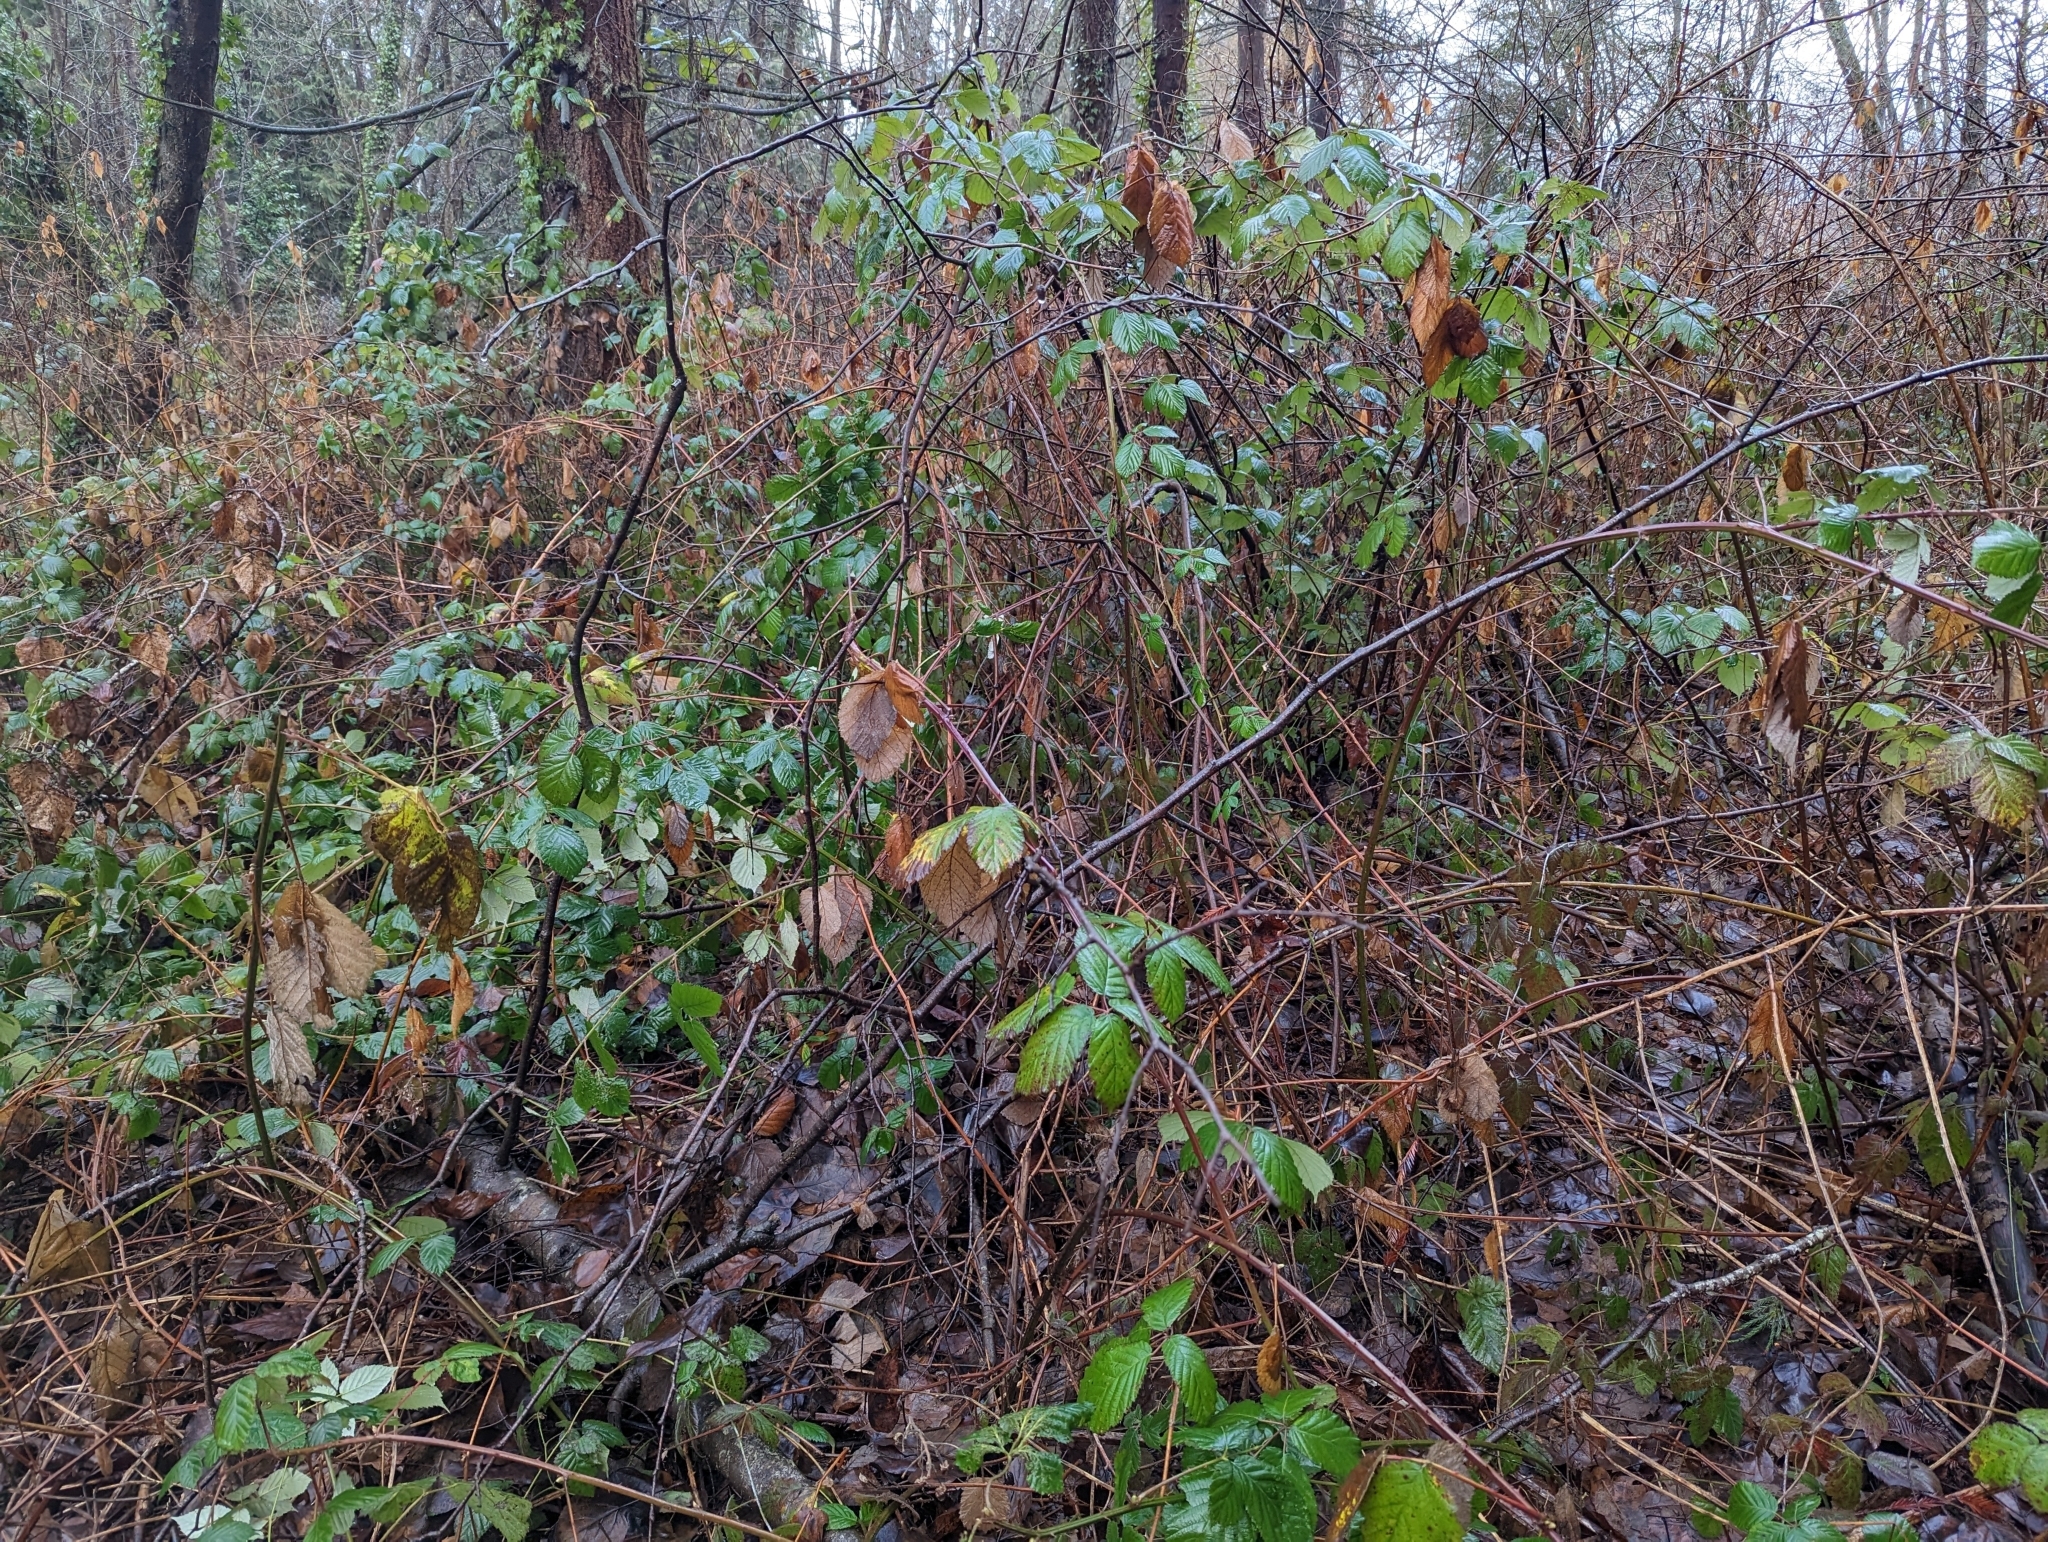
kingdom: Plantae
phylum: Tracheophyta
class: Magnoliopsida
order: Rosales
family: Rosaceae
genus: Rubus
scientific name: Rubus bifrons
